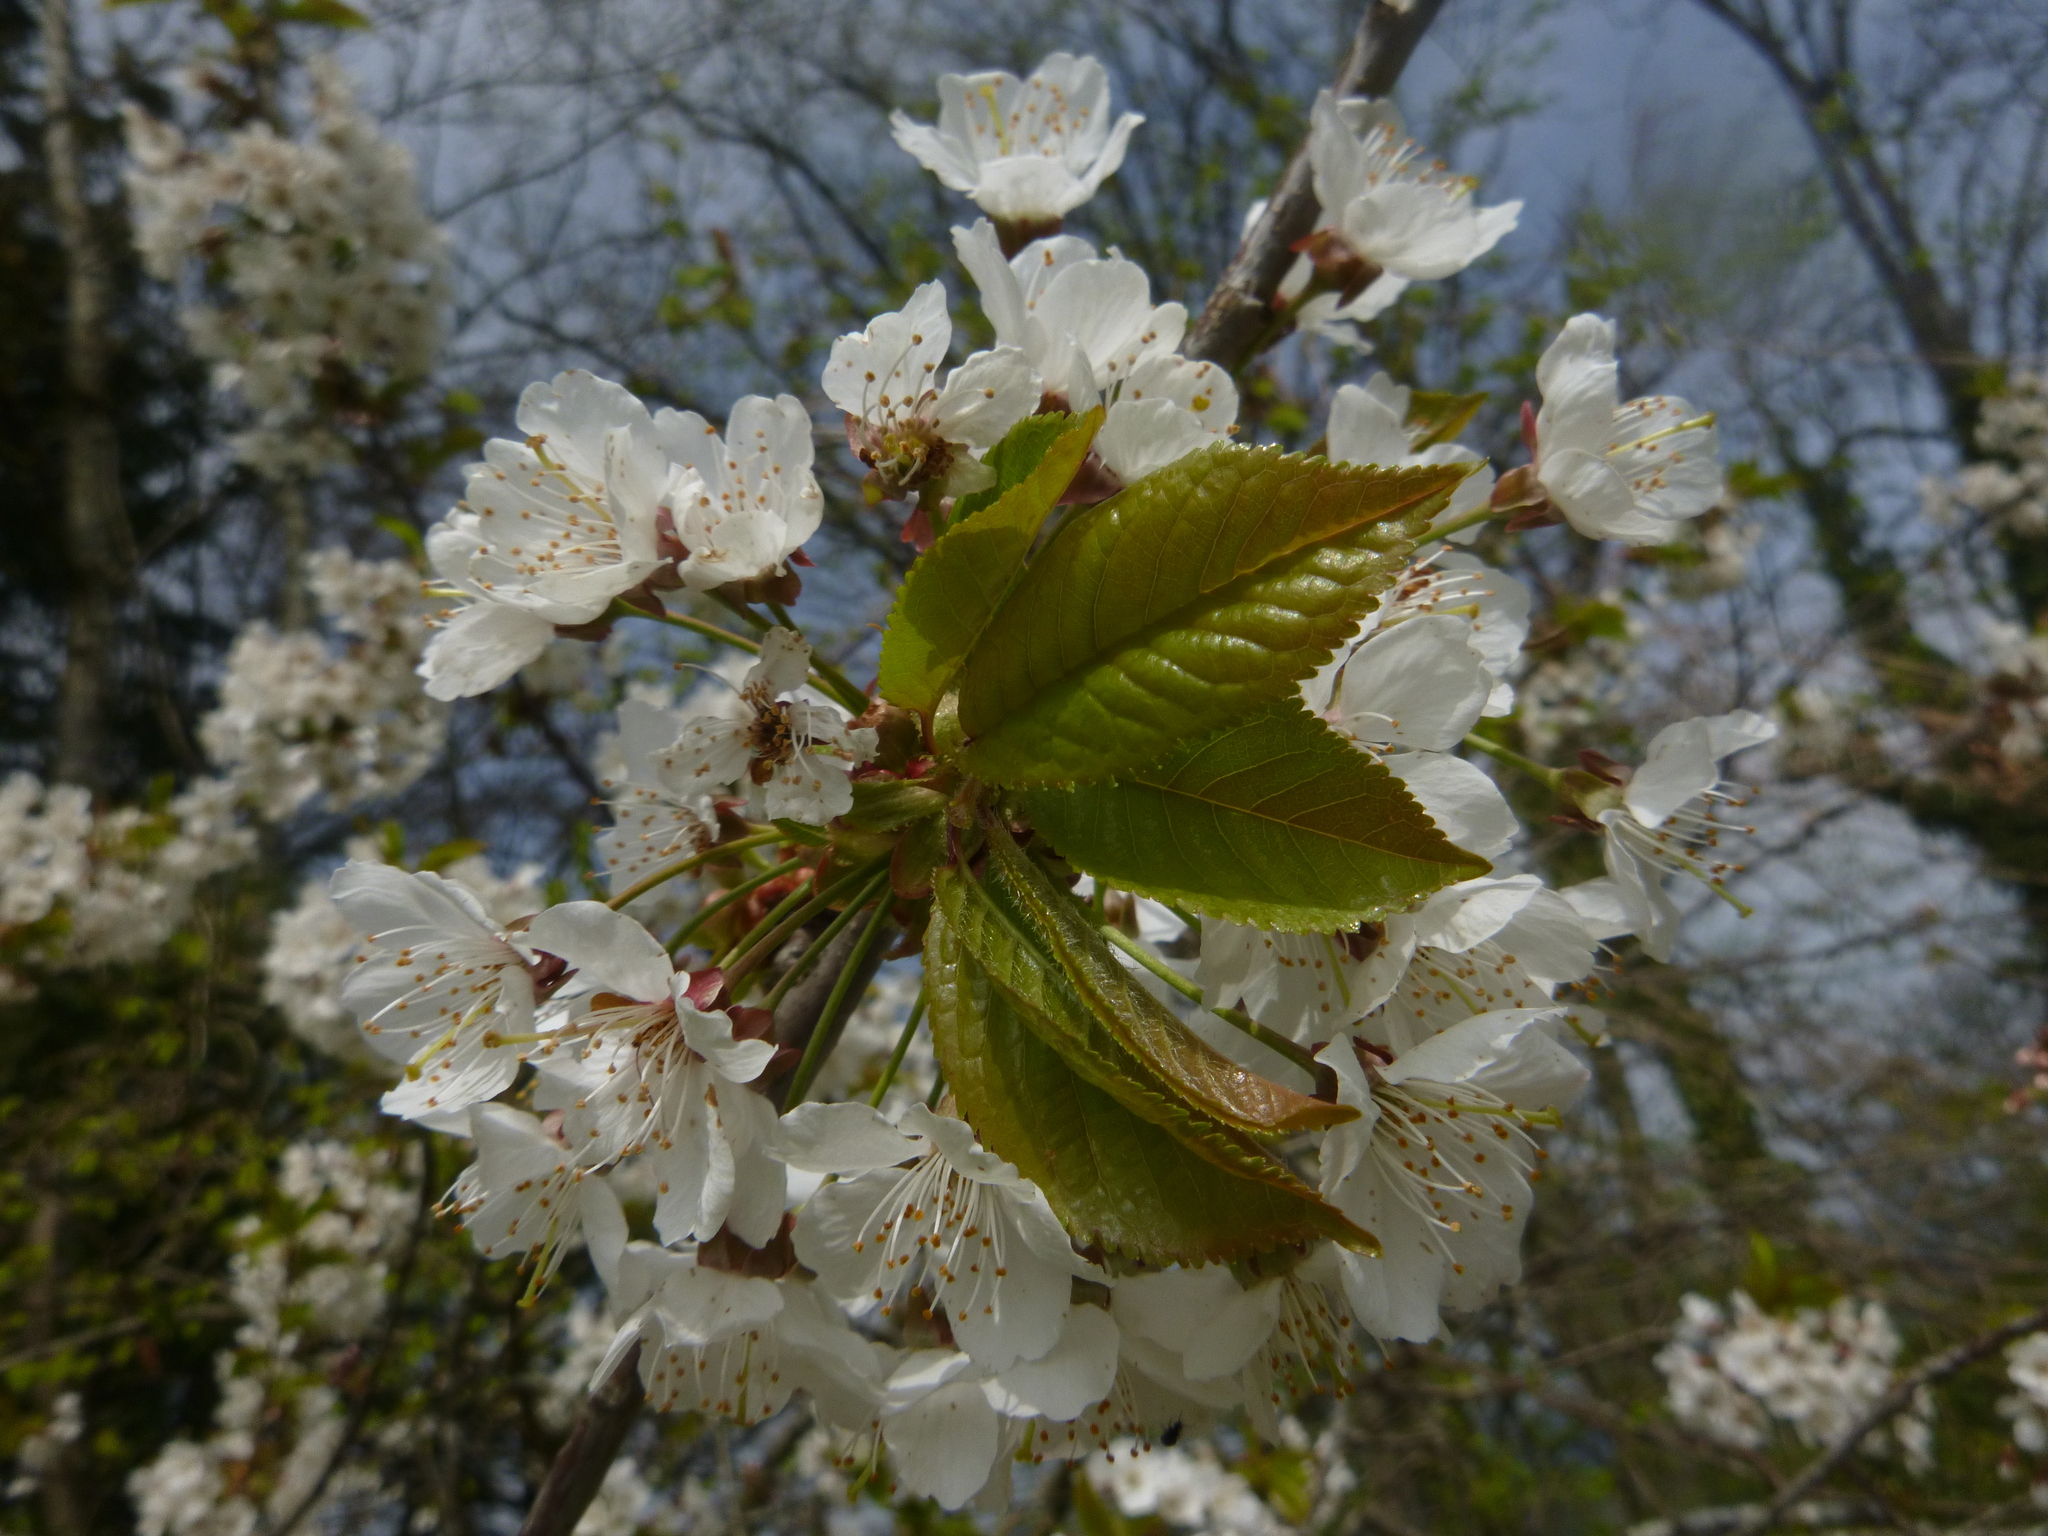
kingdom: Plantae
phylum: Tracheophyta
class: Magnoliopsida
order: Rosales
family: Rosaceae
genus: Prunus
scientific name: Prunus avium
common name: Sweet cherry
